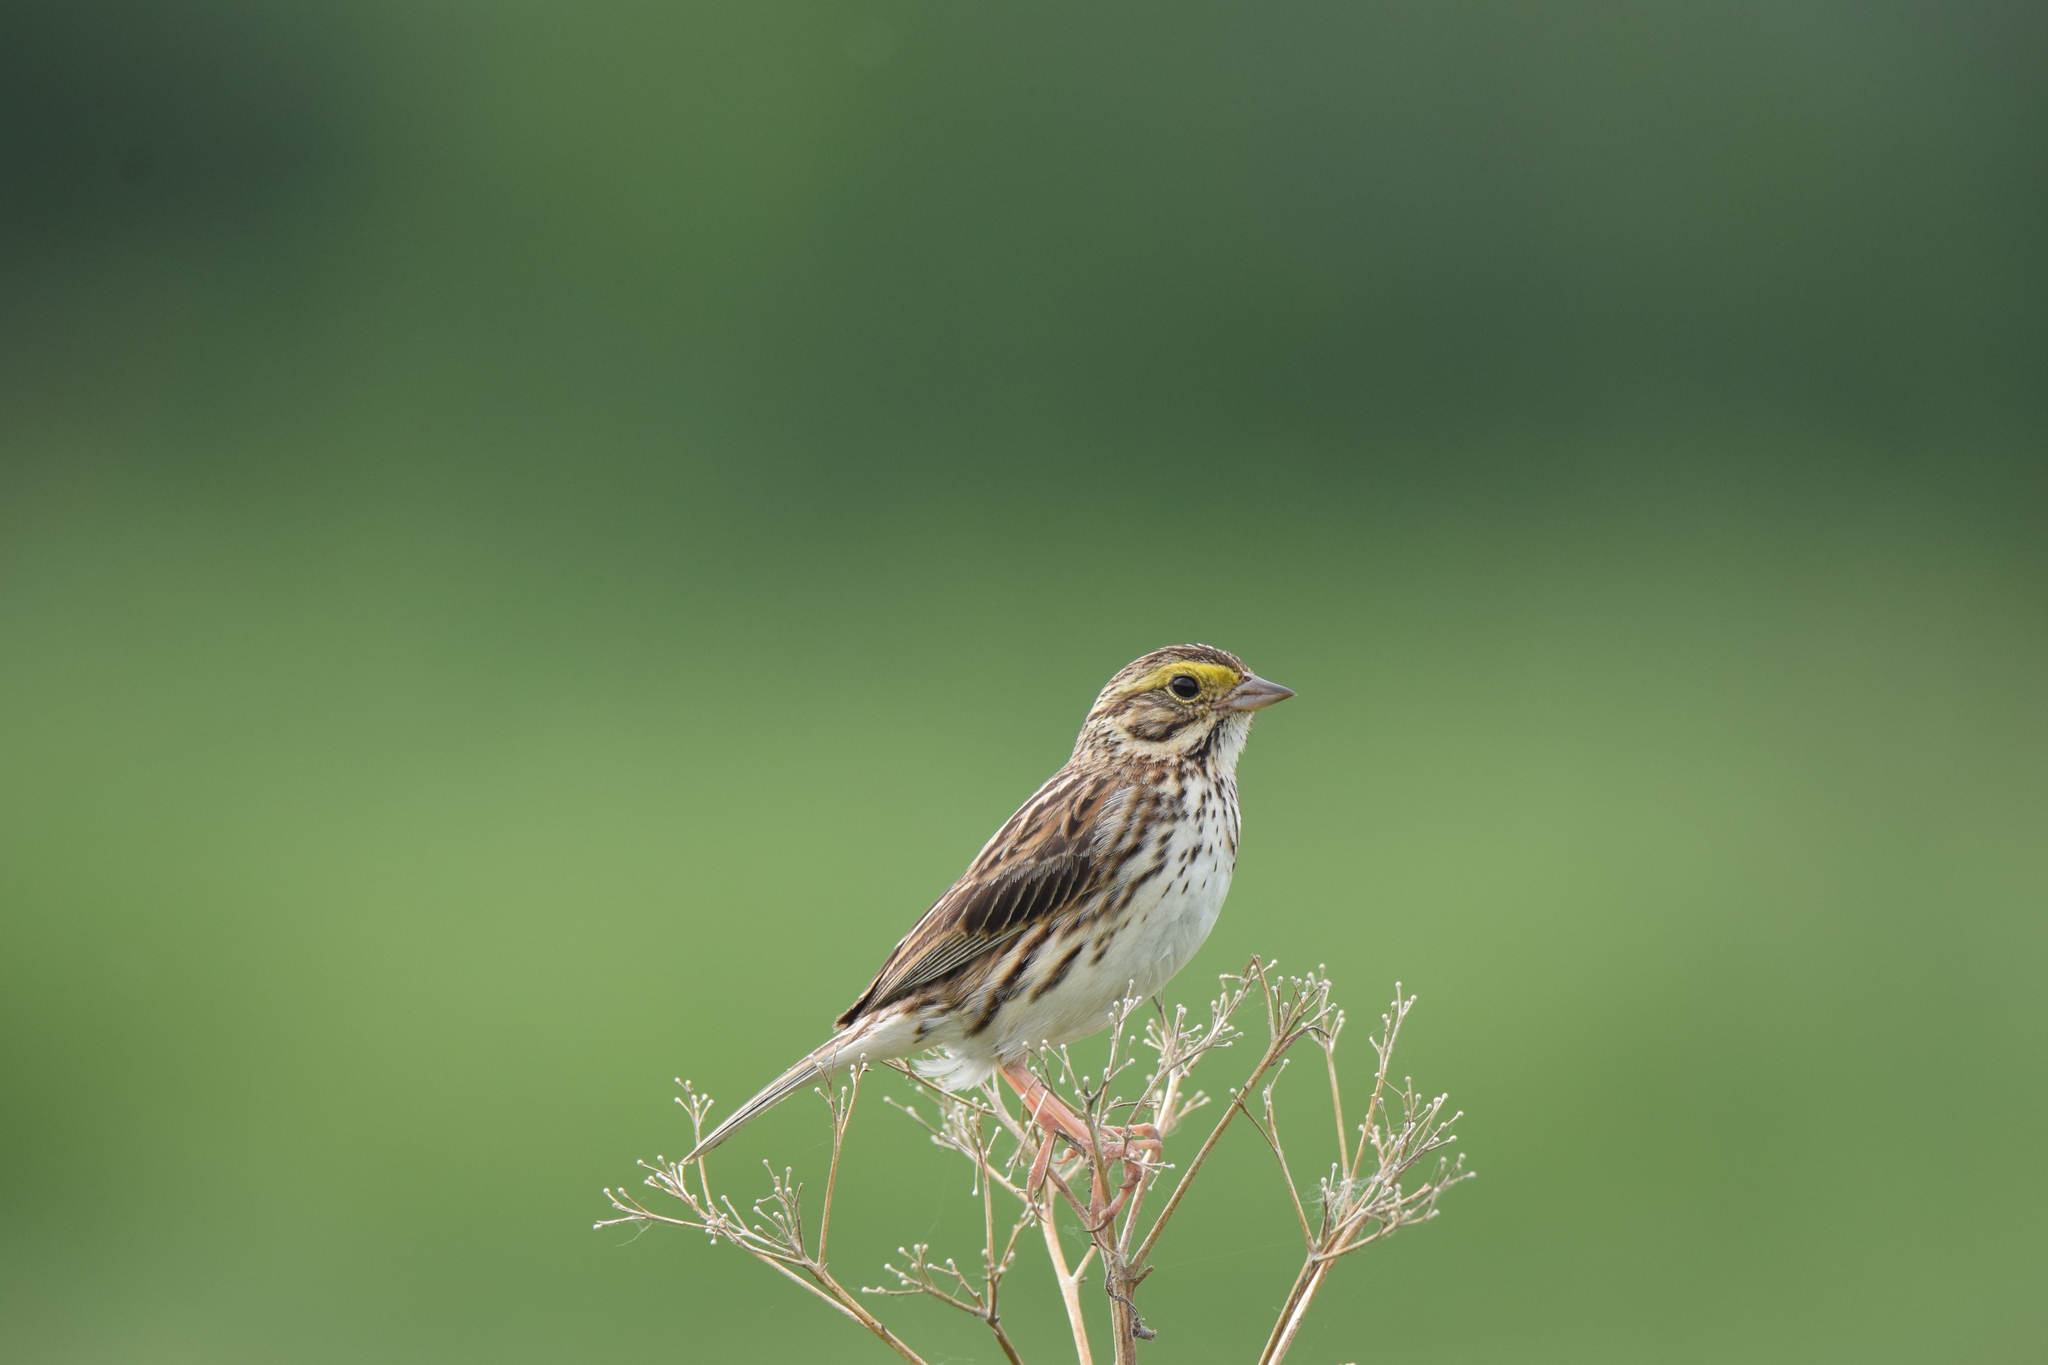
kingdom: Animalia
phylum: Chordata
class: Aves
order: Passeriformes
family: Passerellidae
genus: Passerculus
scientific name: Passerculus sandwichensis
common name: Savannah sparrow
